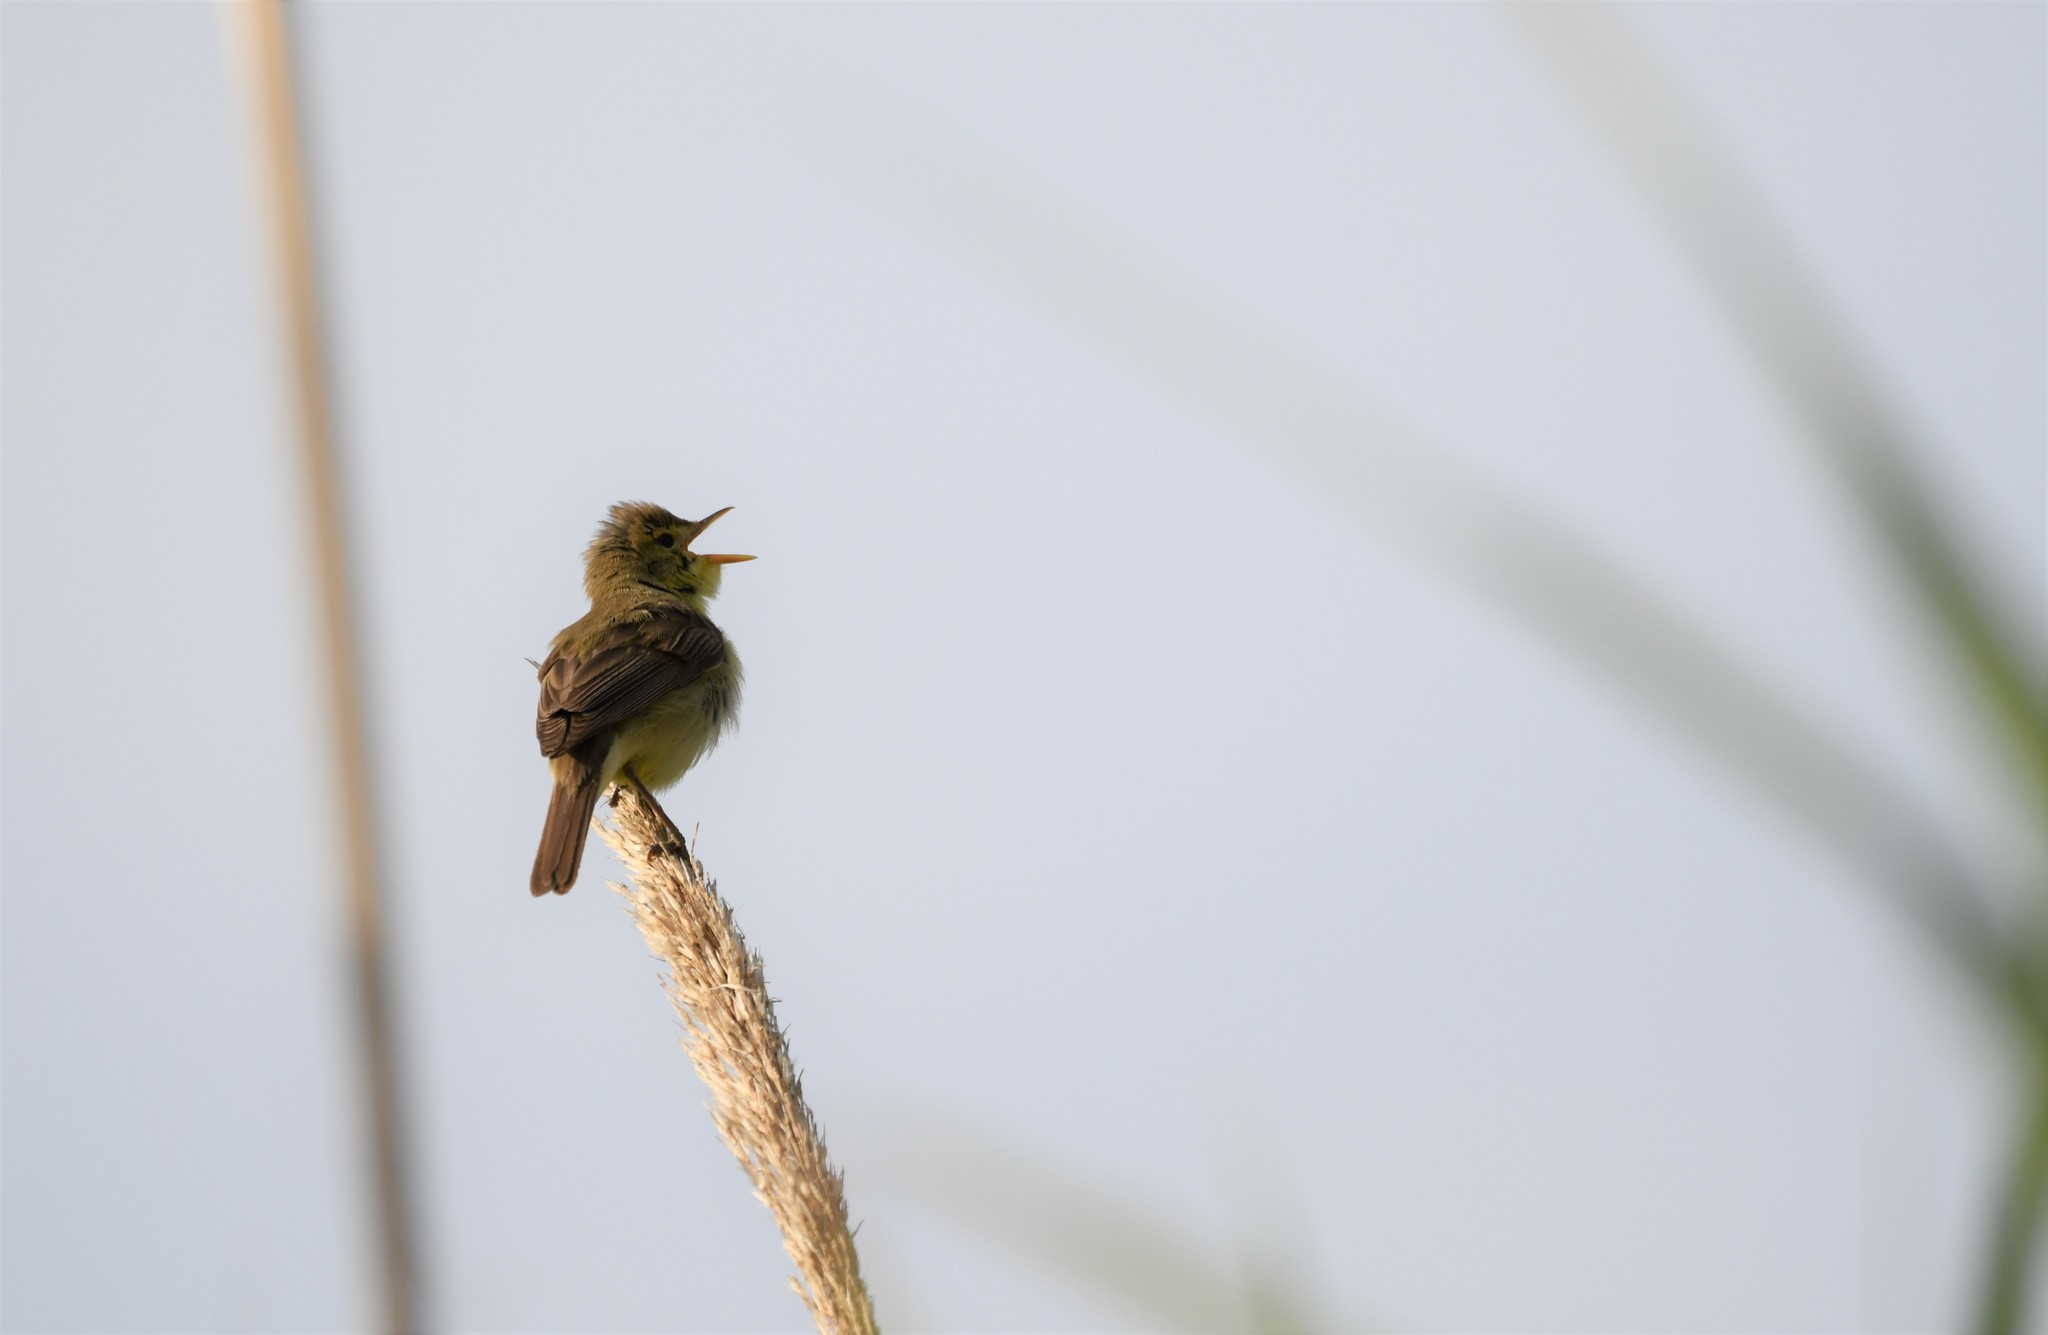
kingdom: Animalia
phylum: Chordata
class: Aves
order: Passeriformes
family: Acrocephalidae
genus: Hippolais
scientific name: Hippolais polyglotta
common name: Melodious warbler
